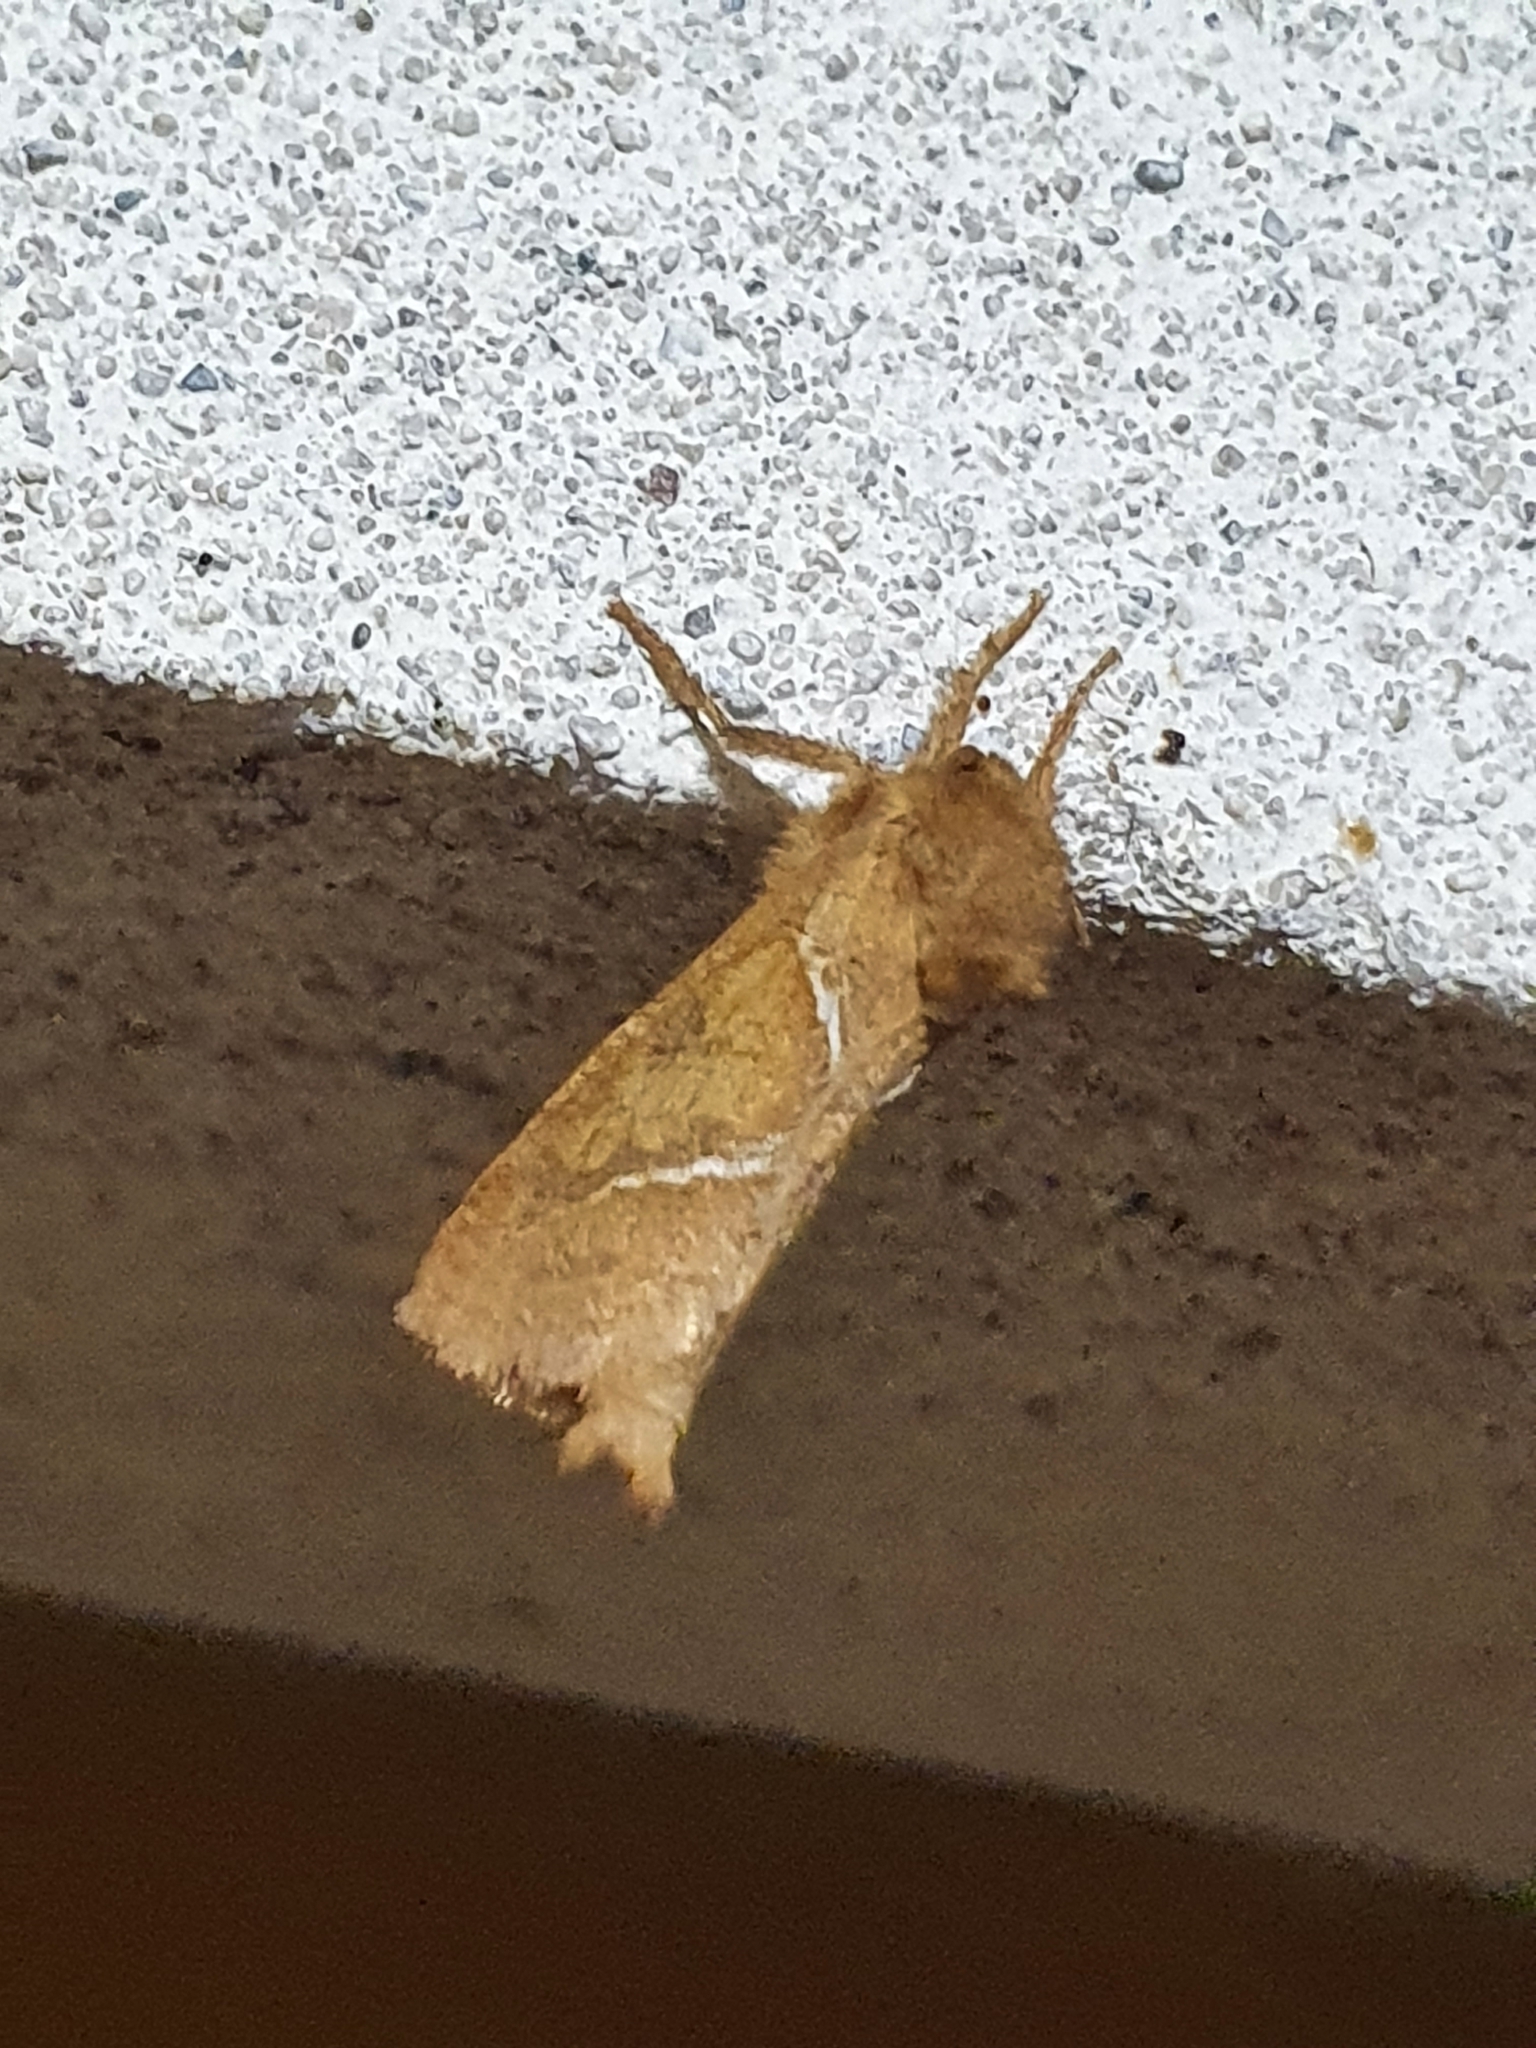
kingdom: Animalia
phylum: Arthropoda
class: Insecta
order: Lepidoptera
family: Hepialidae
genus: Triodia
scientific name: Triodia sylvina
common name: Orange swift
